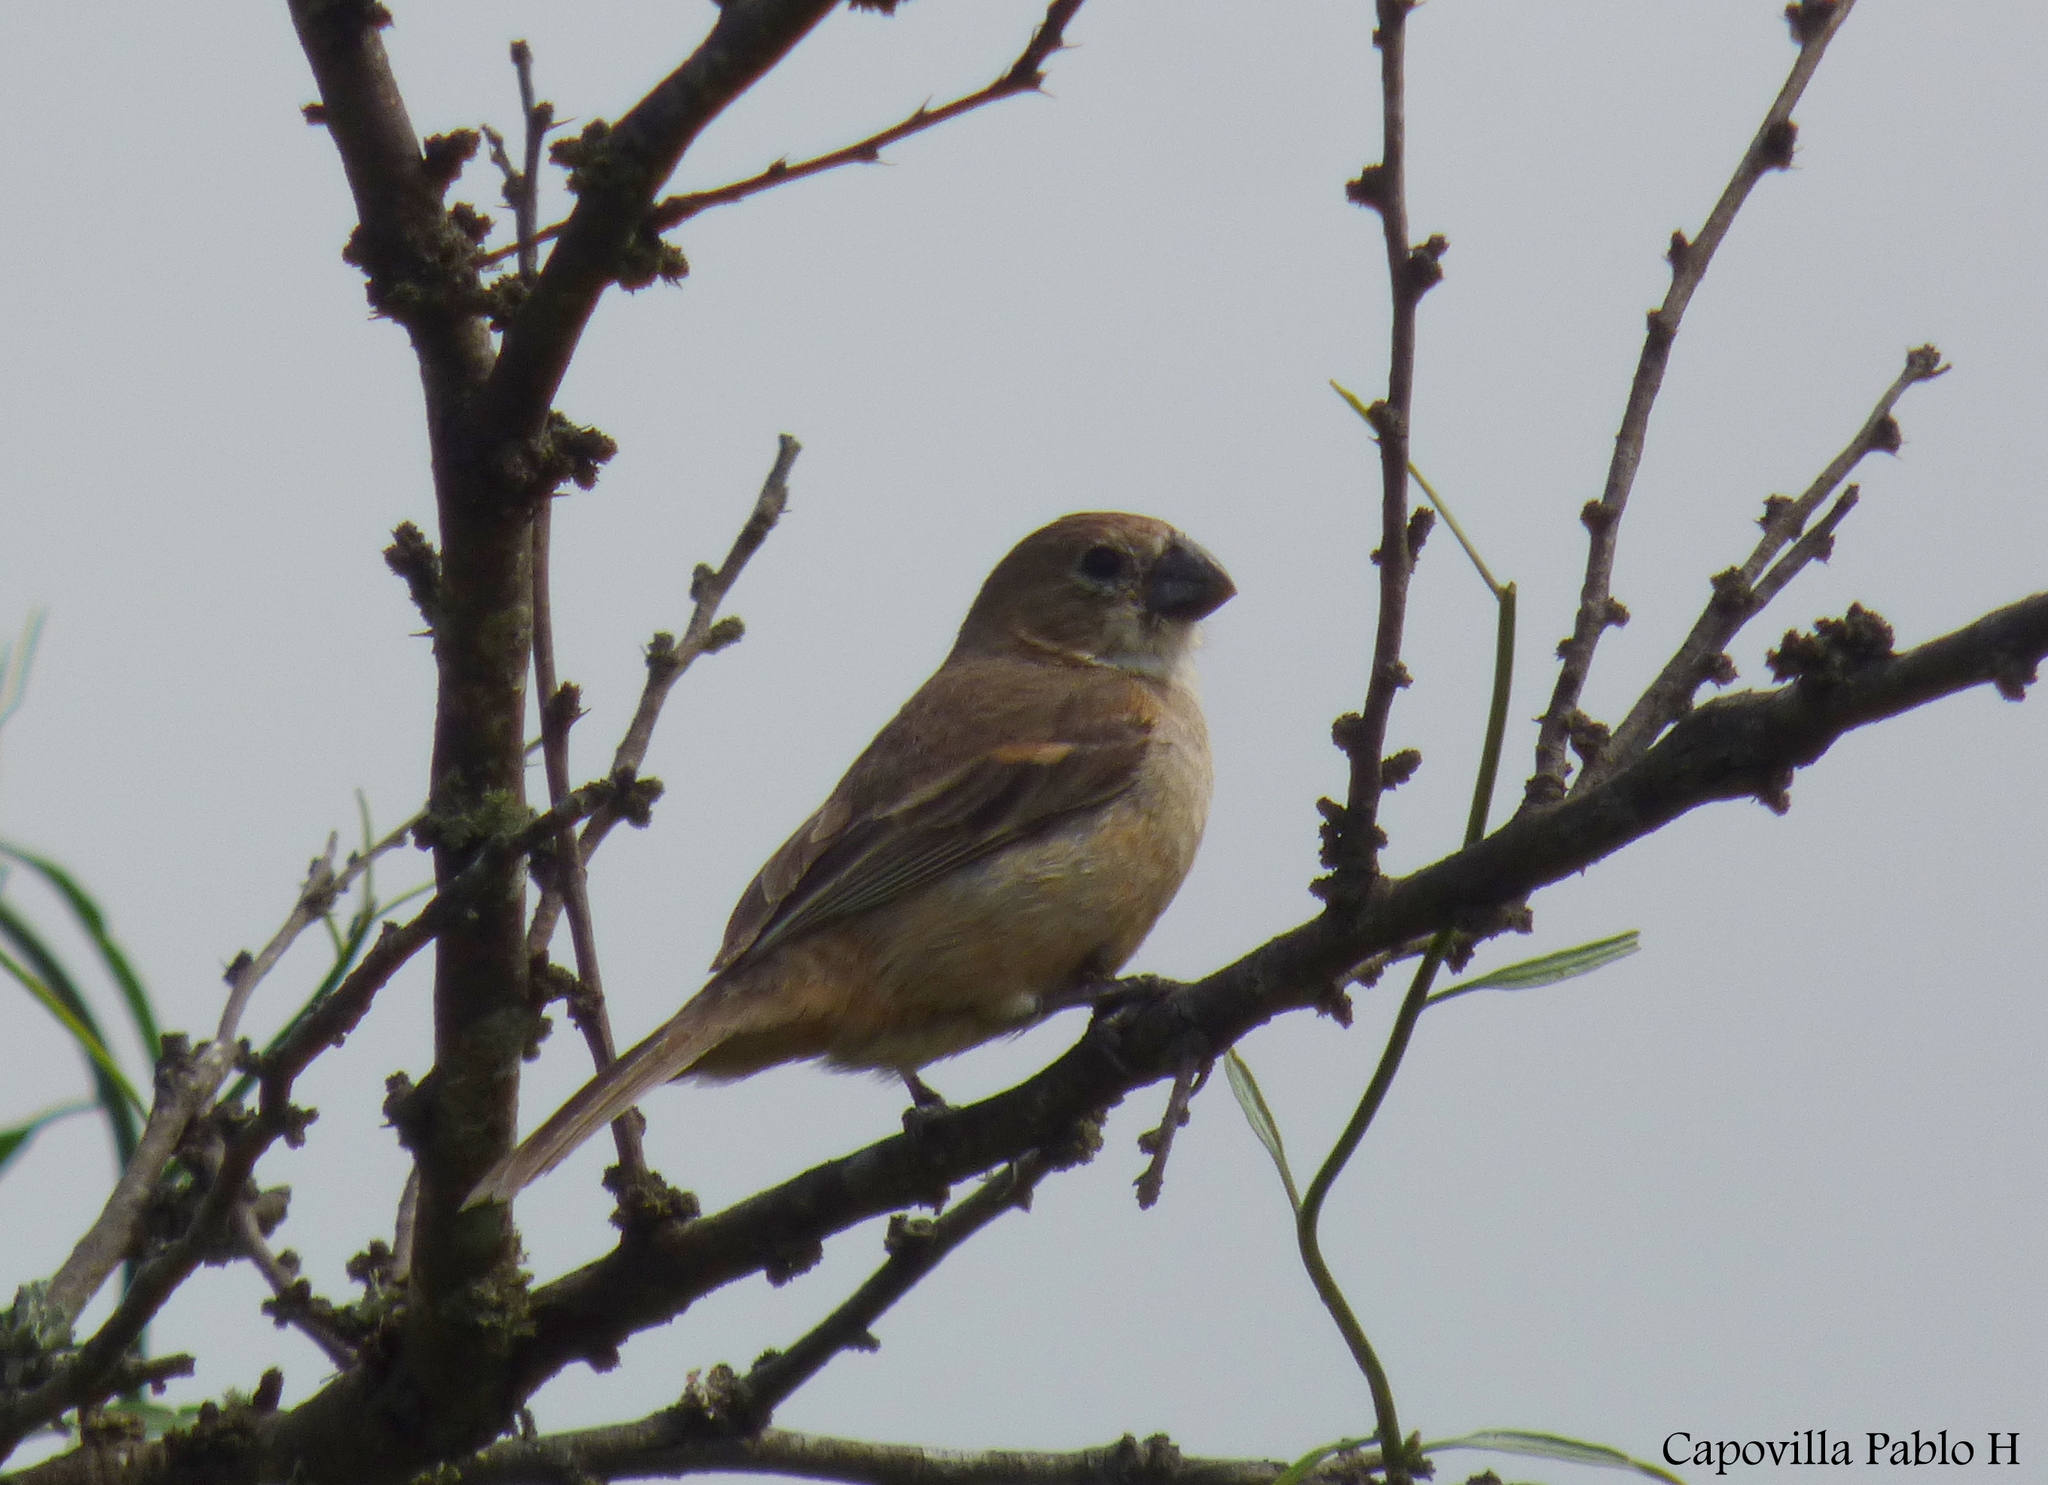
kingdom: Animalia
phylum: Chordata
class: Aves
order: Passeriformes
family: Thraupidae
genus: Sporophila
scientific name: Sporophila collaris
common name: Rusty-collared seedeater
